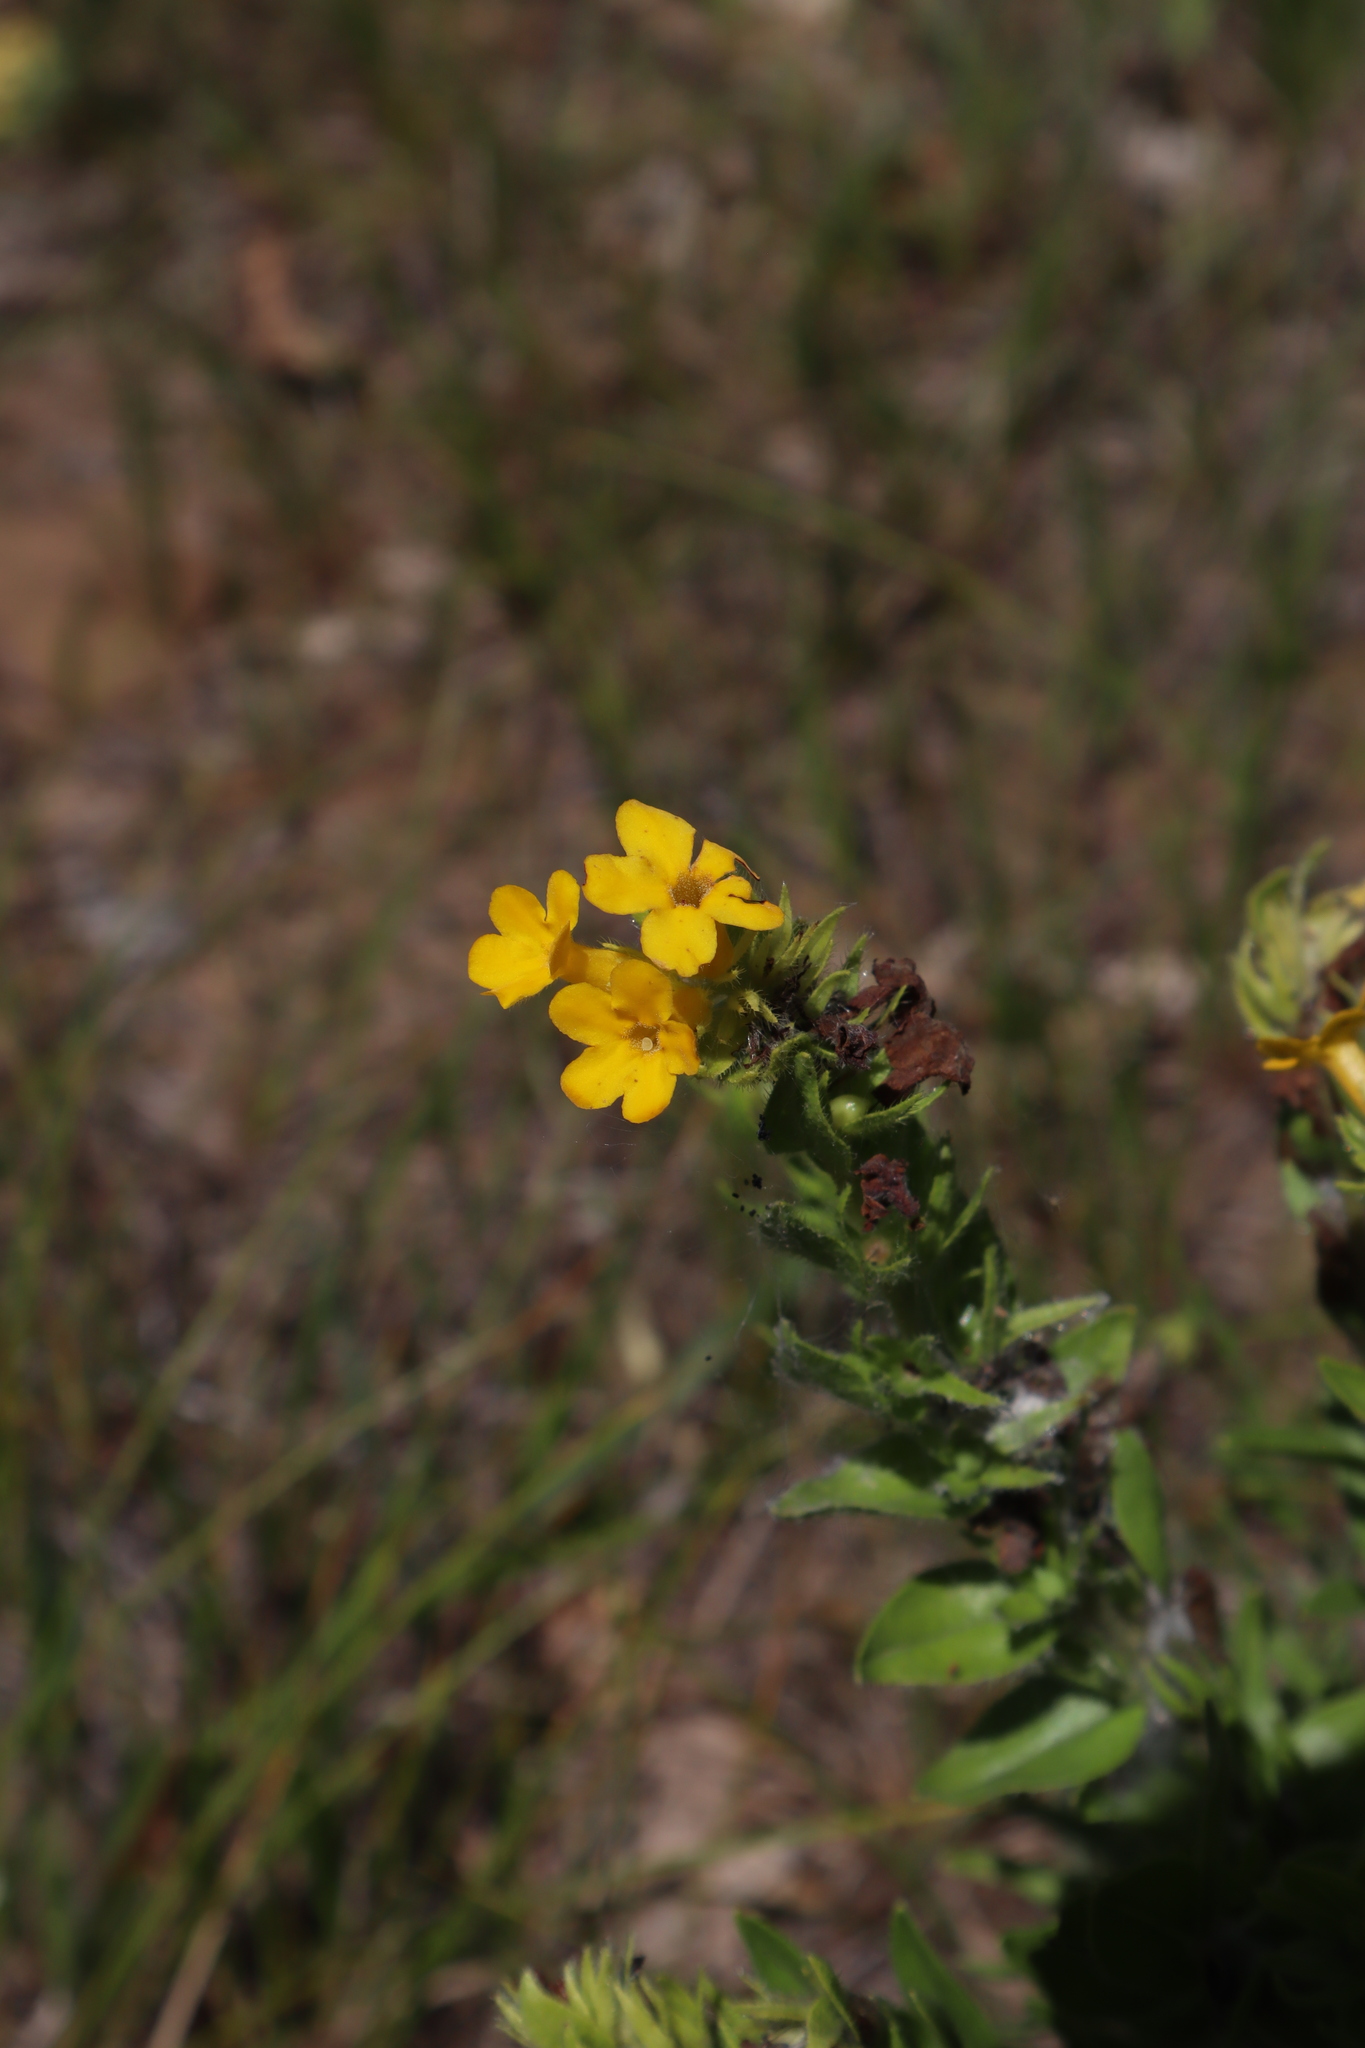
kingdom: Plantae
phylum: Tracheophyta
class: Magnoliopsida
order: Boraginales
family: Boraginaceae
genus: Lithospermum
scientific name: Lithospermum caroliniense
